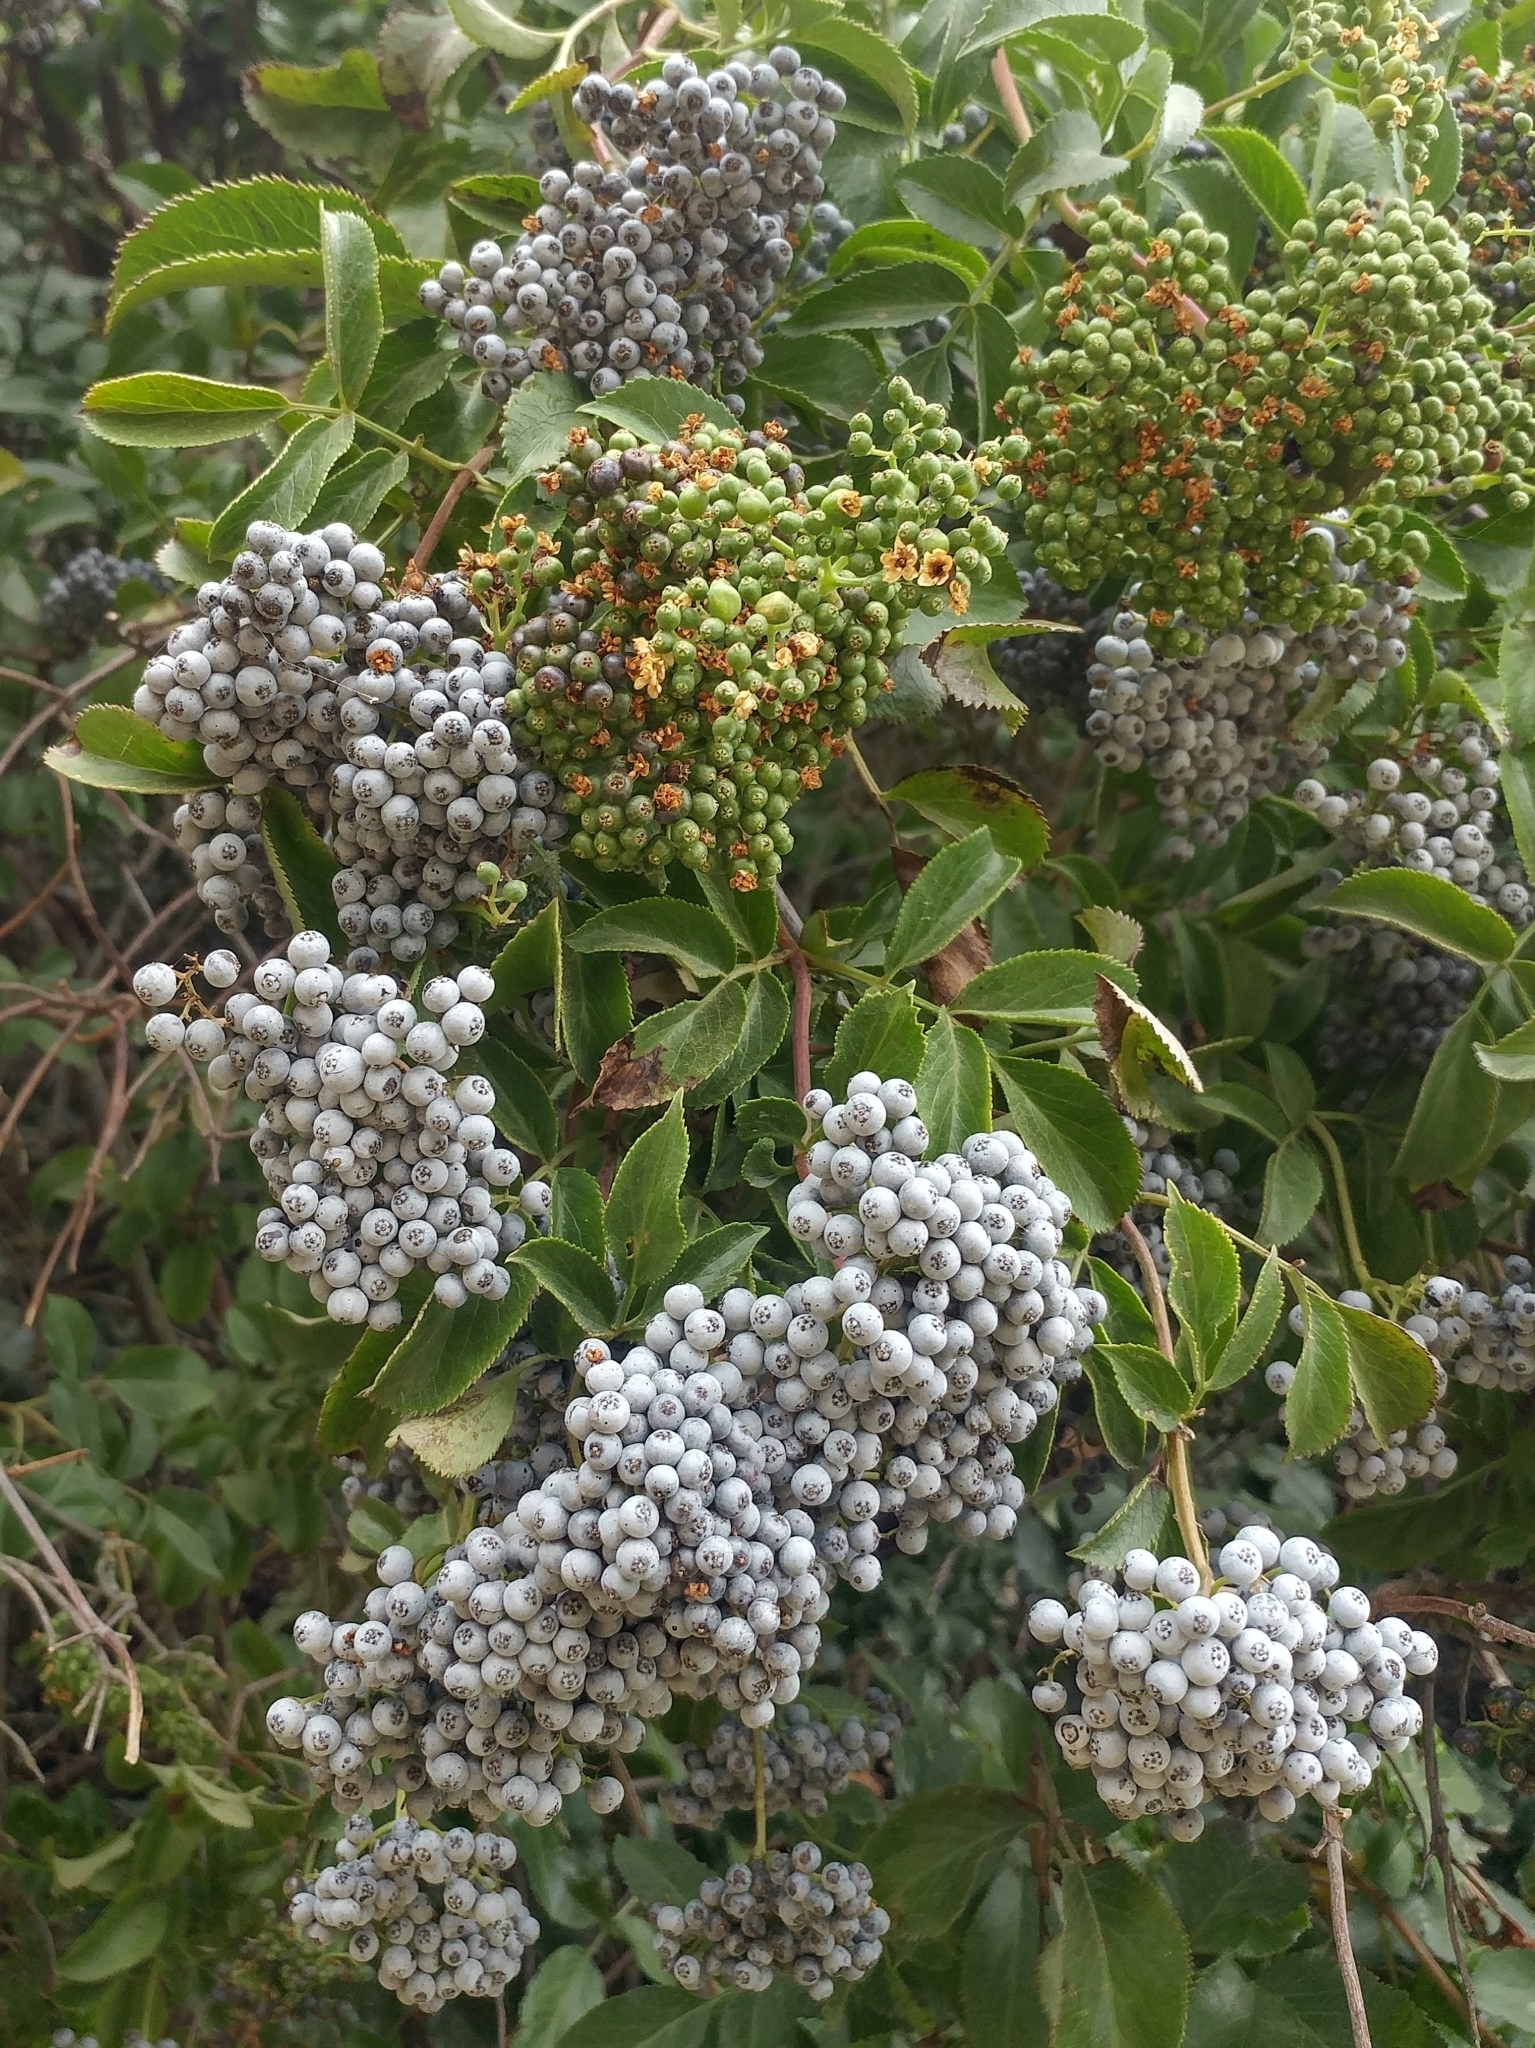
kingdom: Plantae
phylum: Tracheophyta
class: Magnoliopsida
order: Dipsacales
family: Viburnaceae
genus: Sambucus
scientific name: Sambucus cerulea
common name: Blue elder
